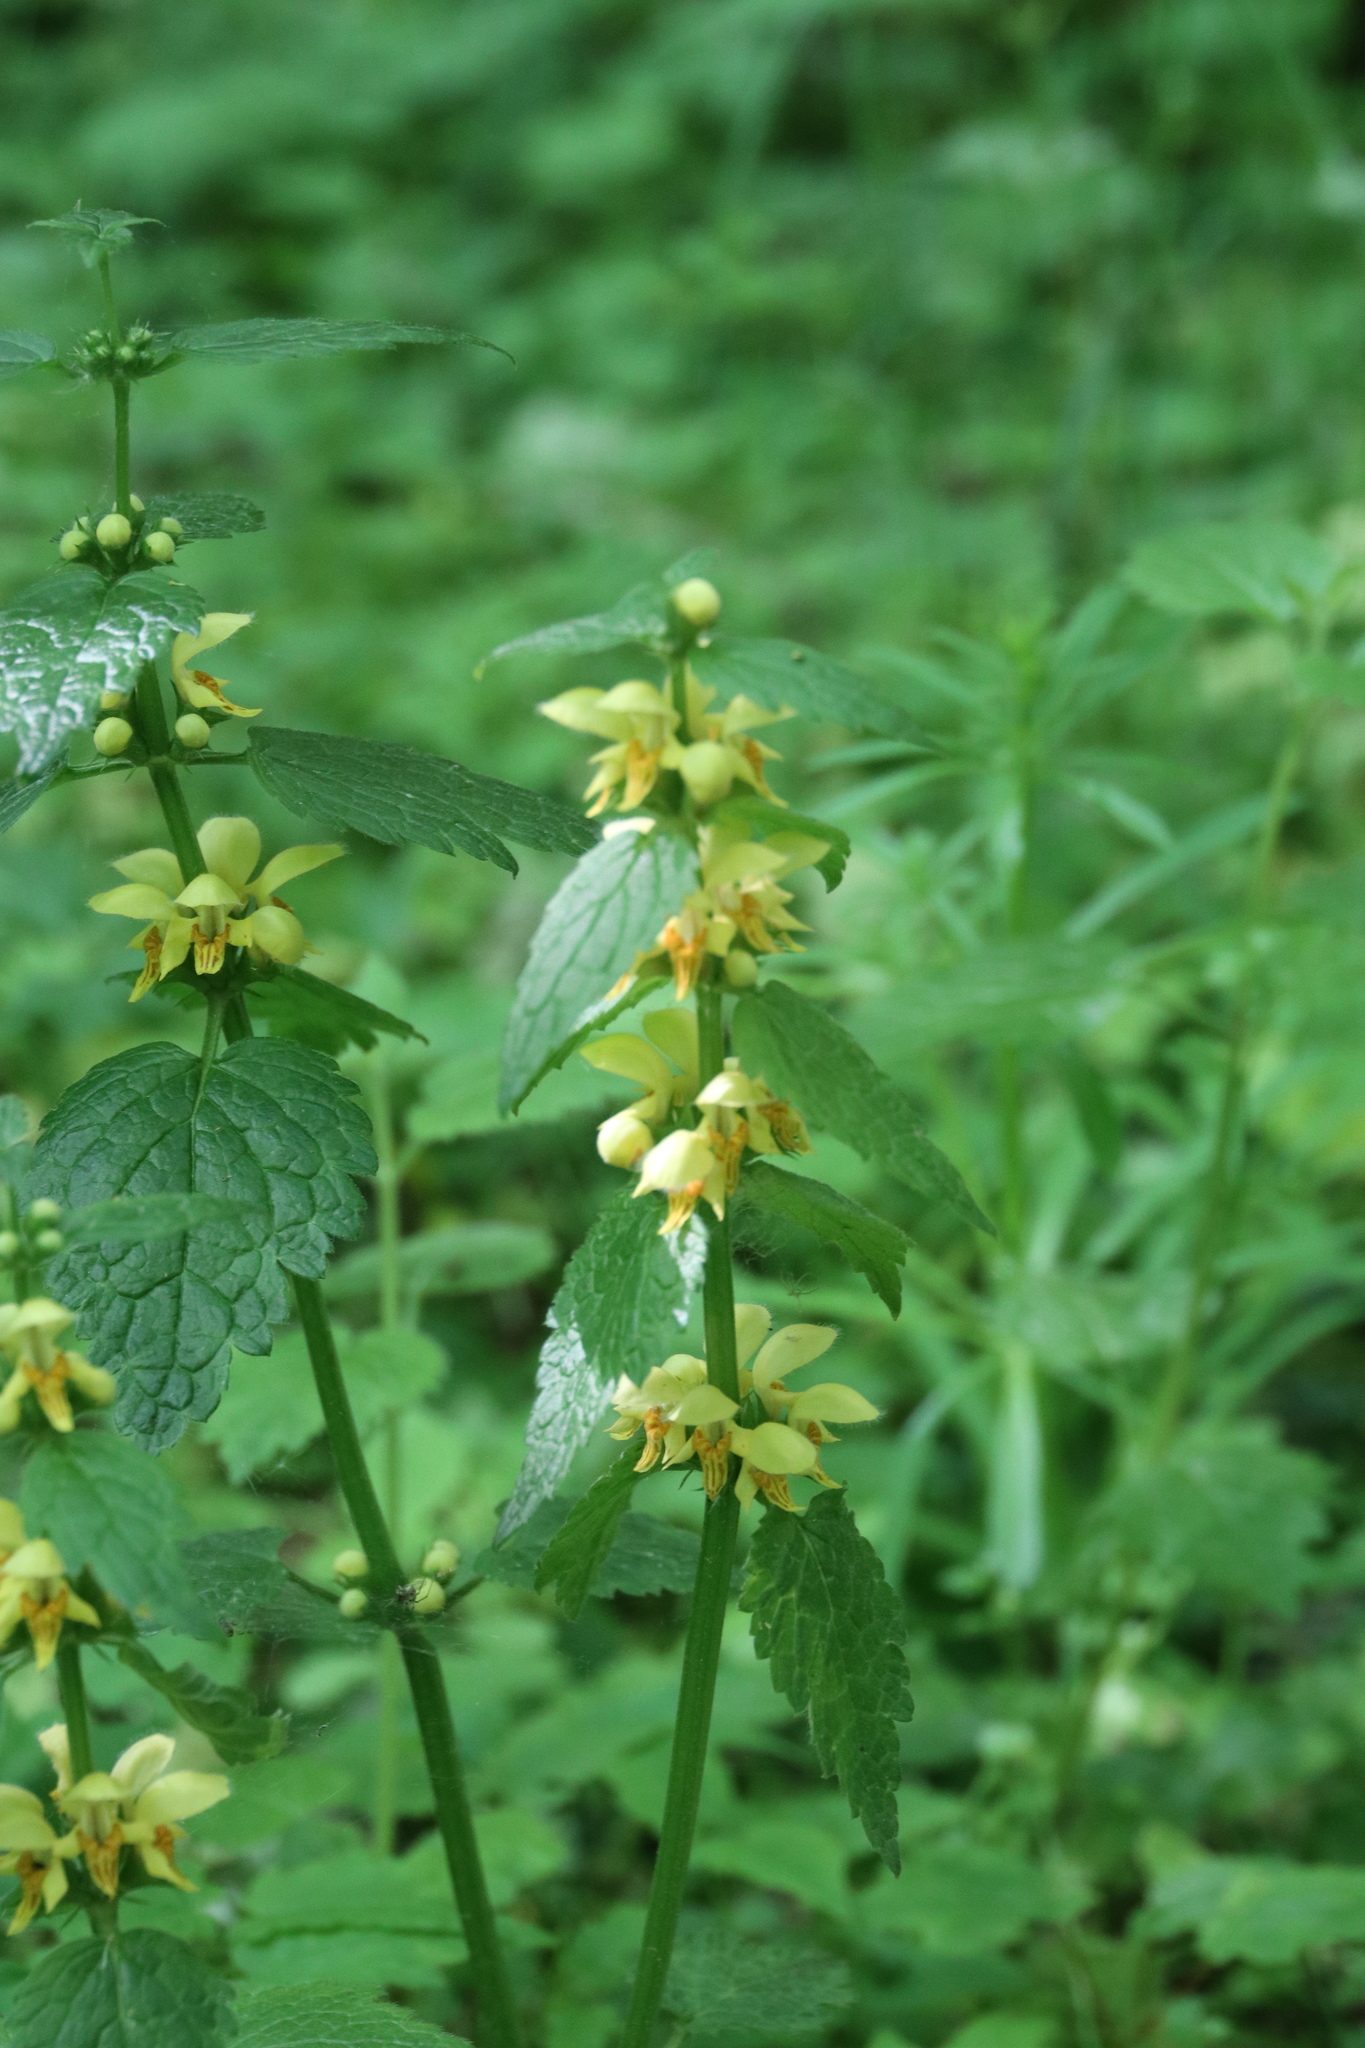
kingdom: Plantae
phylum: Tracheophyta
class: Magnoliopsida
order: Lamiales
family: Lamiaceae
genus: Lamium
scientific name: Lamium galeobdolon
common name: Yellow archangel
